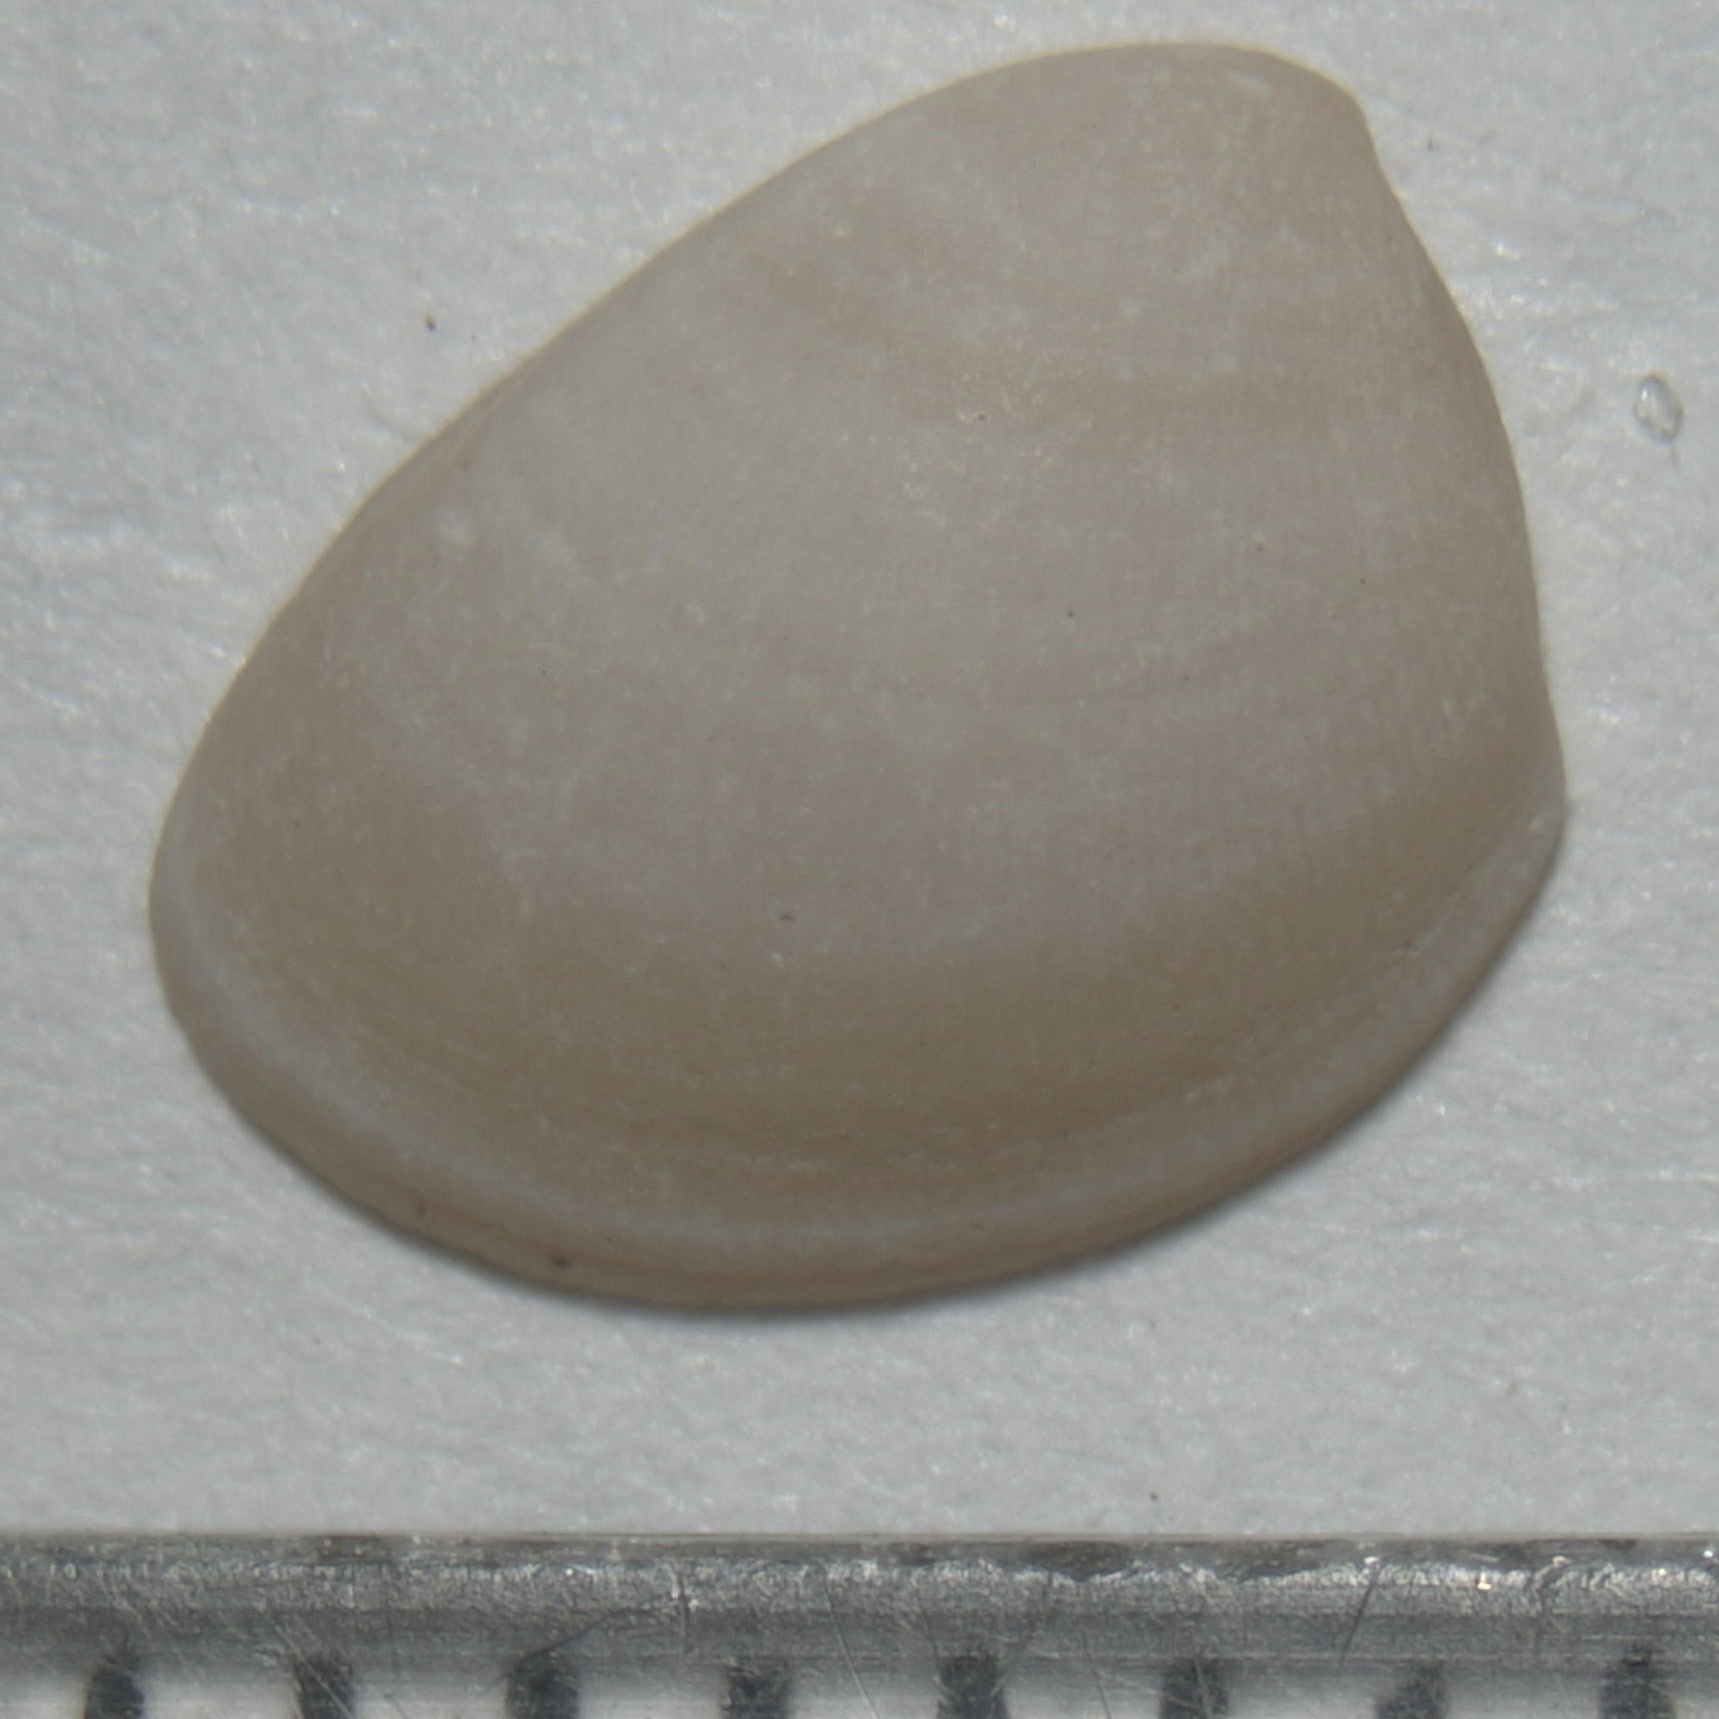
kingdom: Animalia
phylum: Mollusca
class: Bivalvia
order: Nuculida
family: Nuculidae
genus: Nucula
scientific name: Nucula proxima
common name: Atlantic nut clam
